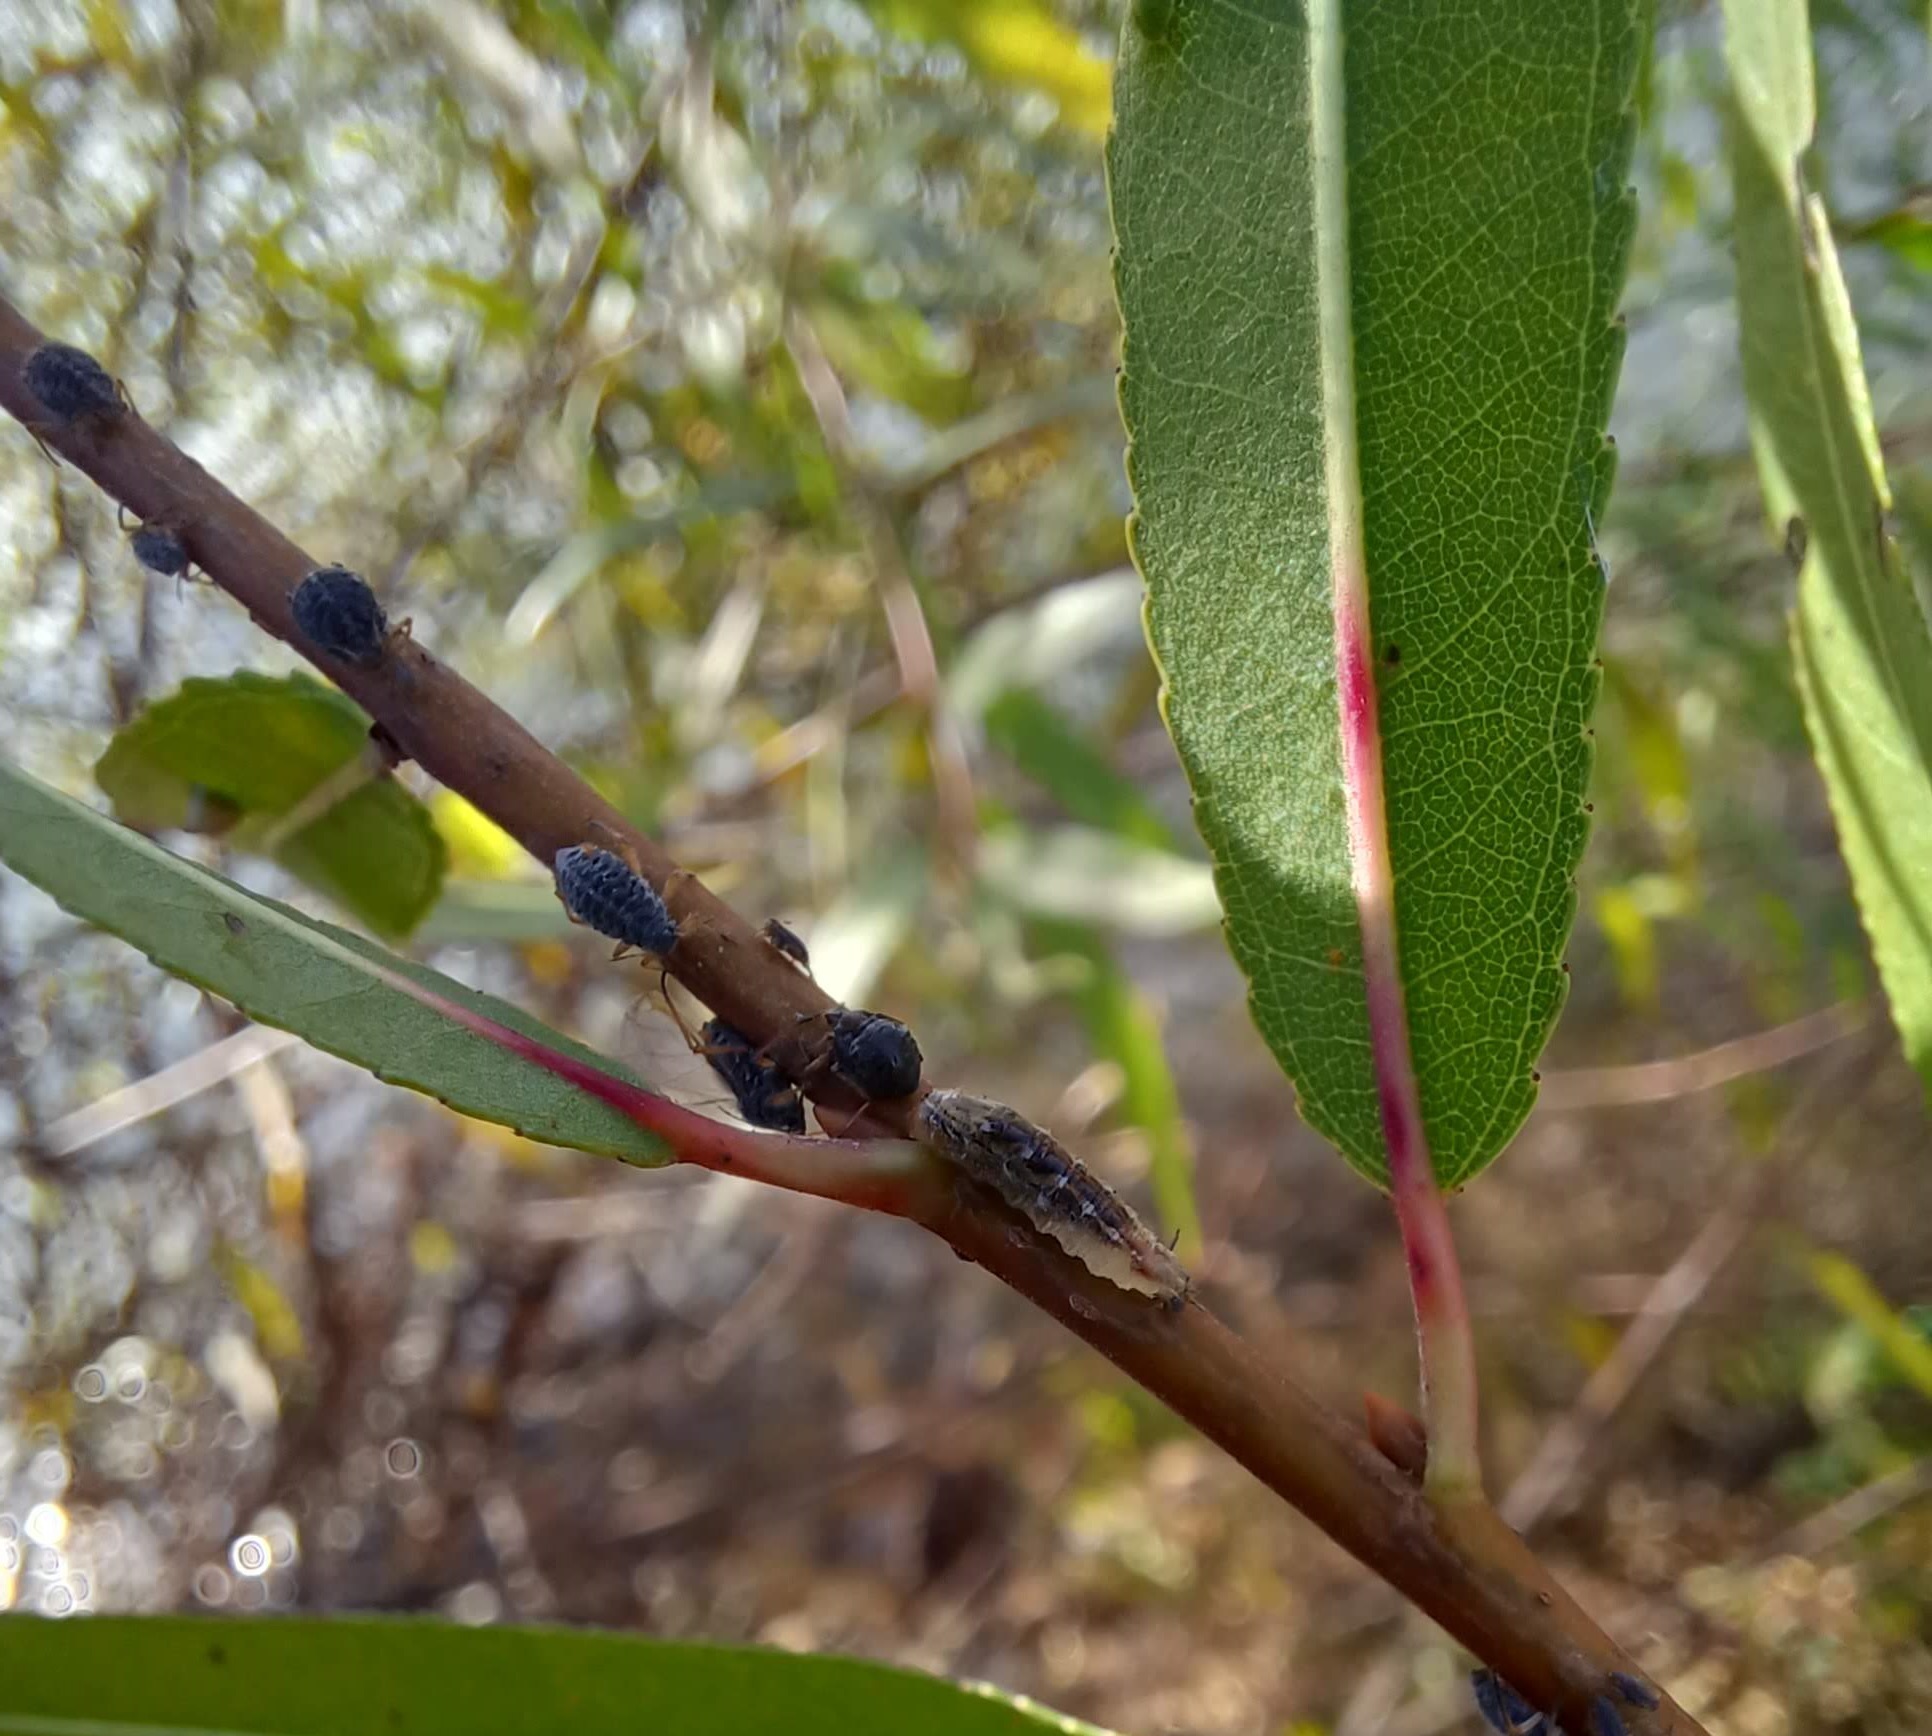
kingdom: Animalia
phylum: Arthropoda
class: Insecta
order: Diptera
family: Syrphidae
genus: Syrphus
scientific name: Syrphus
